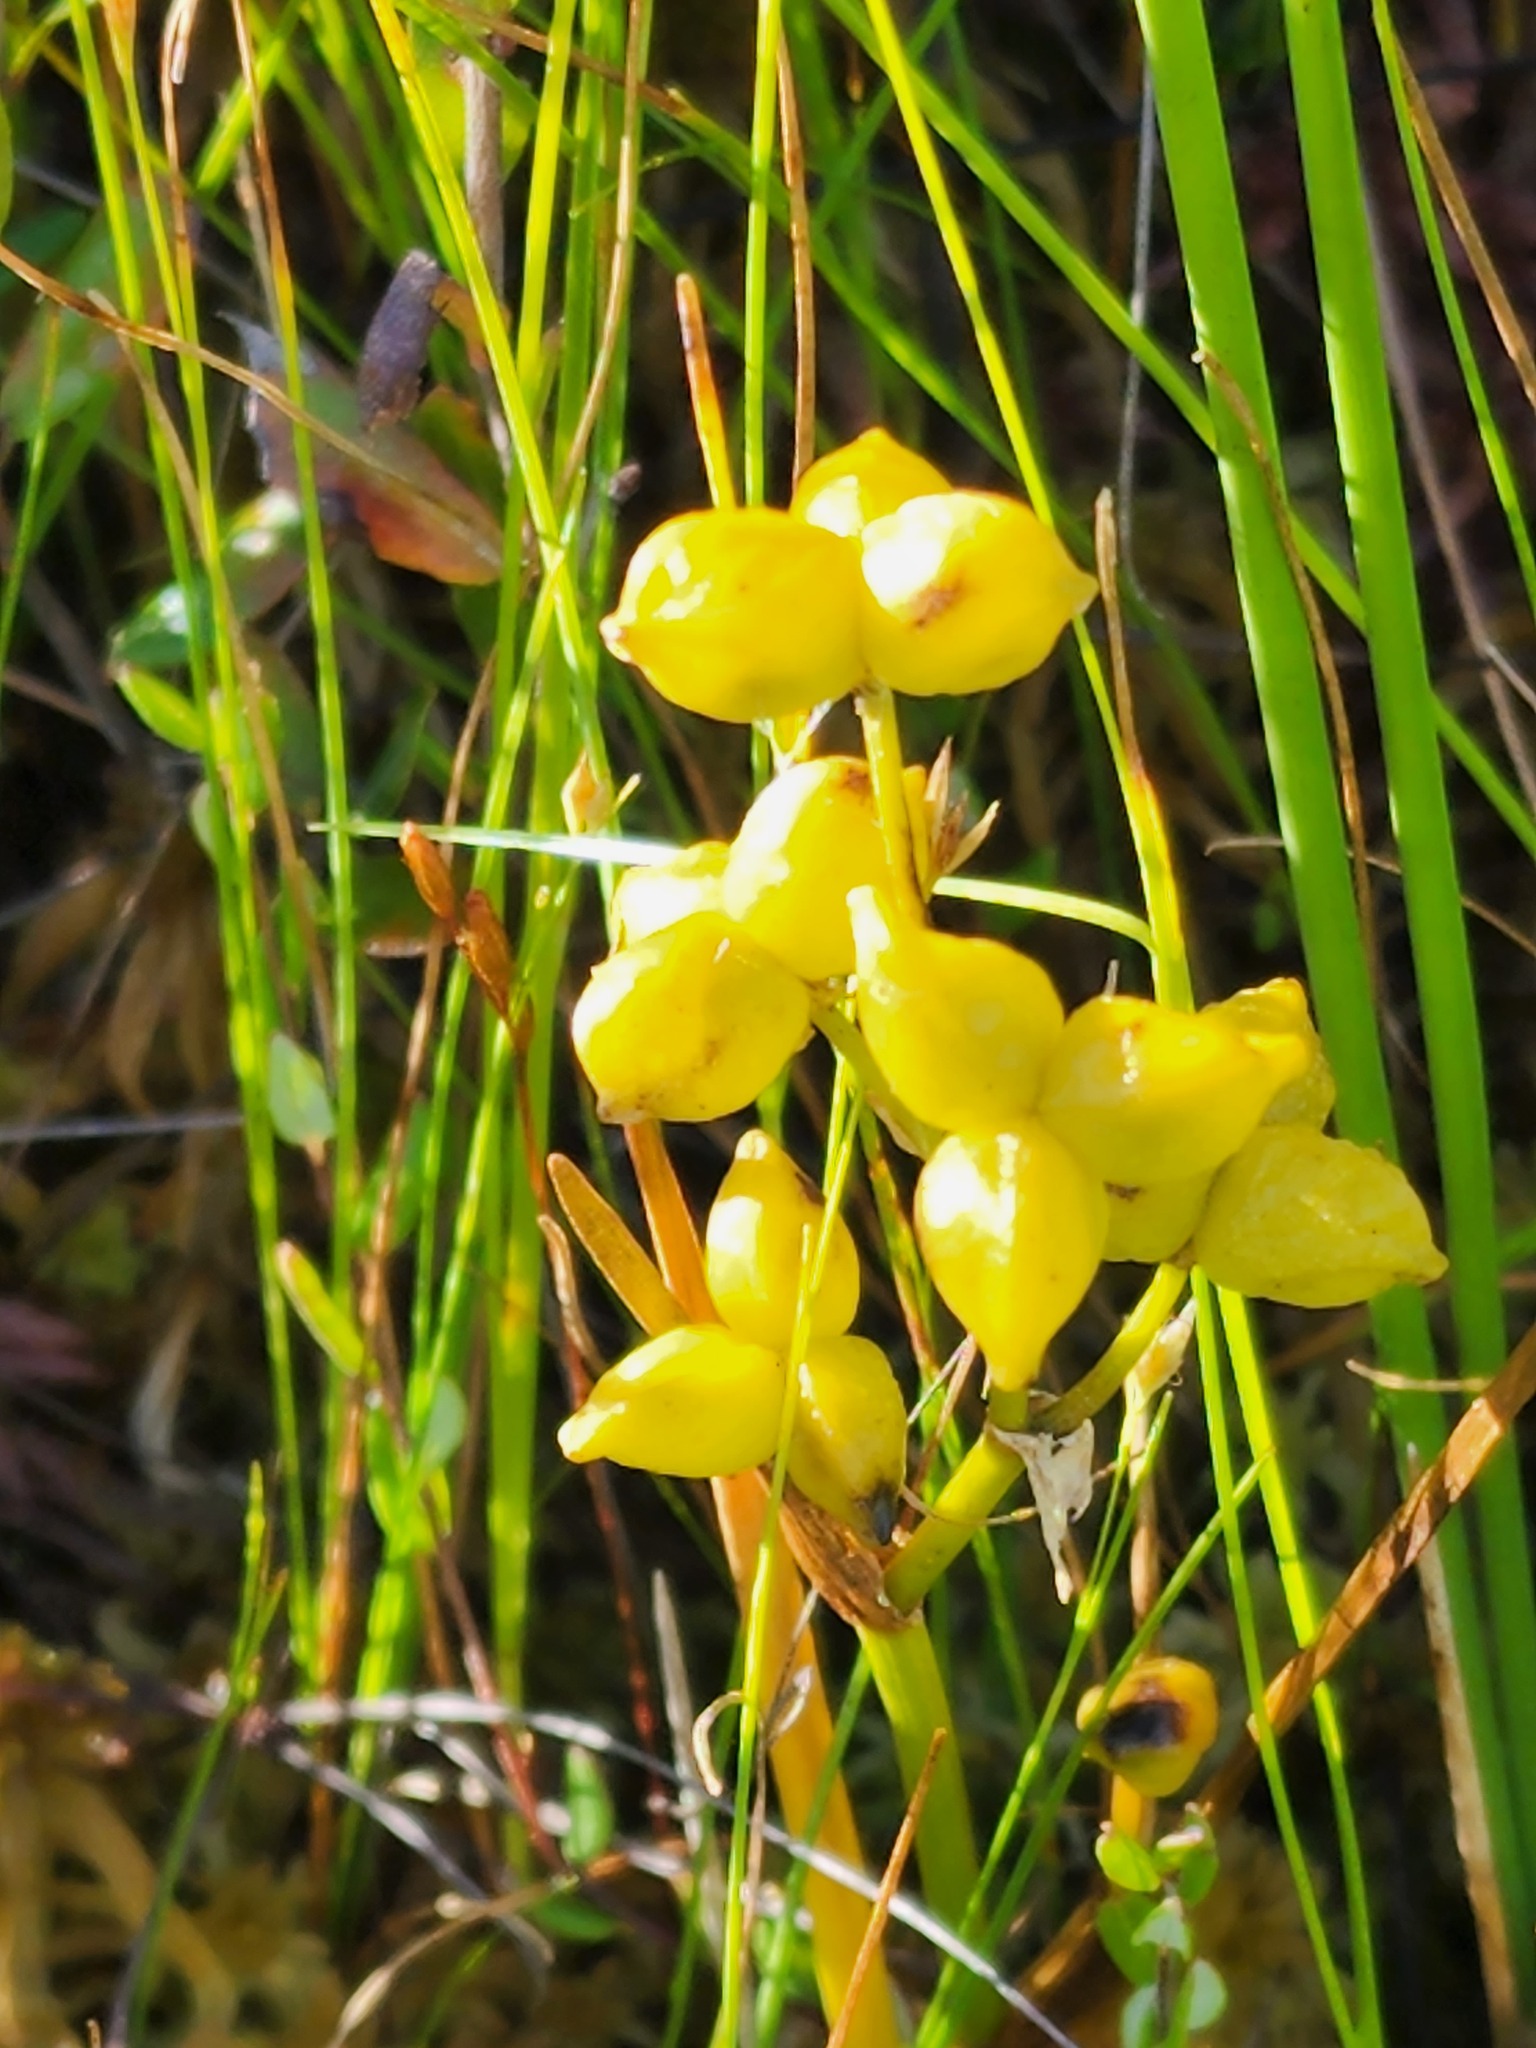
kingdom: Plantae
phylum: Tracheophyta
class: Liliopsida
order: Alismatales
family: Scheuchzeriaceae
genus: Scheuchzeria
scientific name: Scheuchzeria palustris
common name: Rannoch-rush
